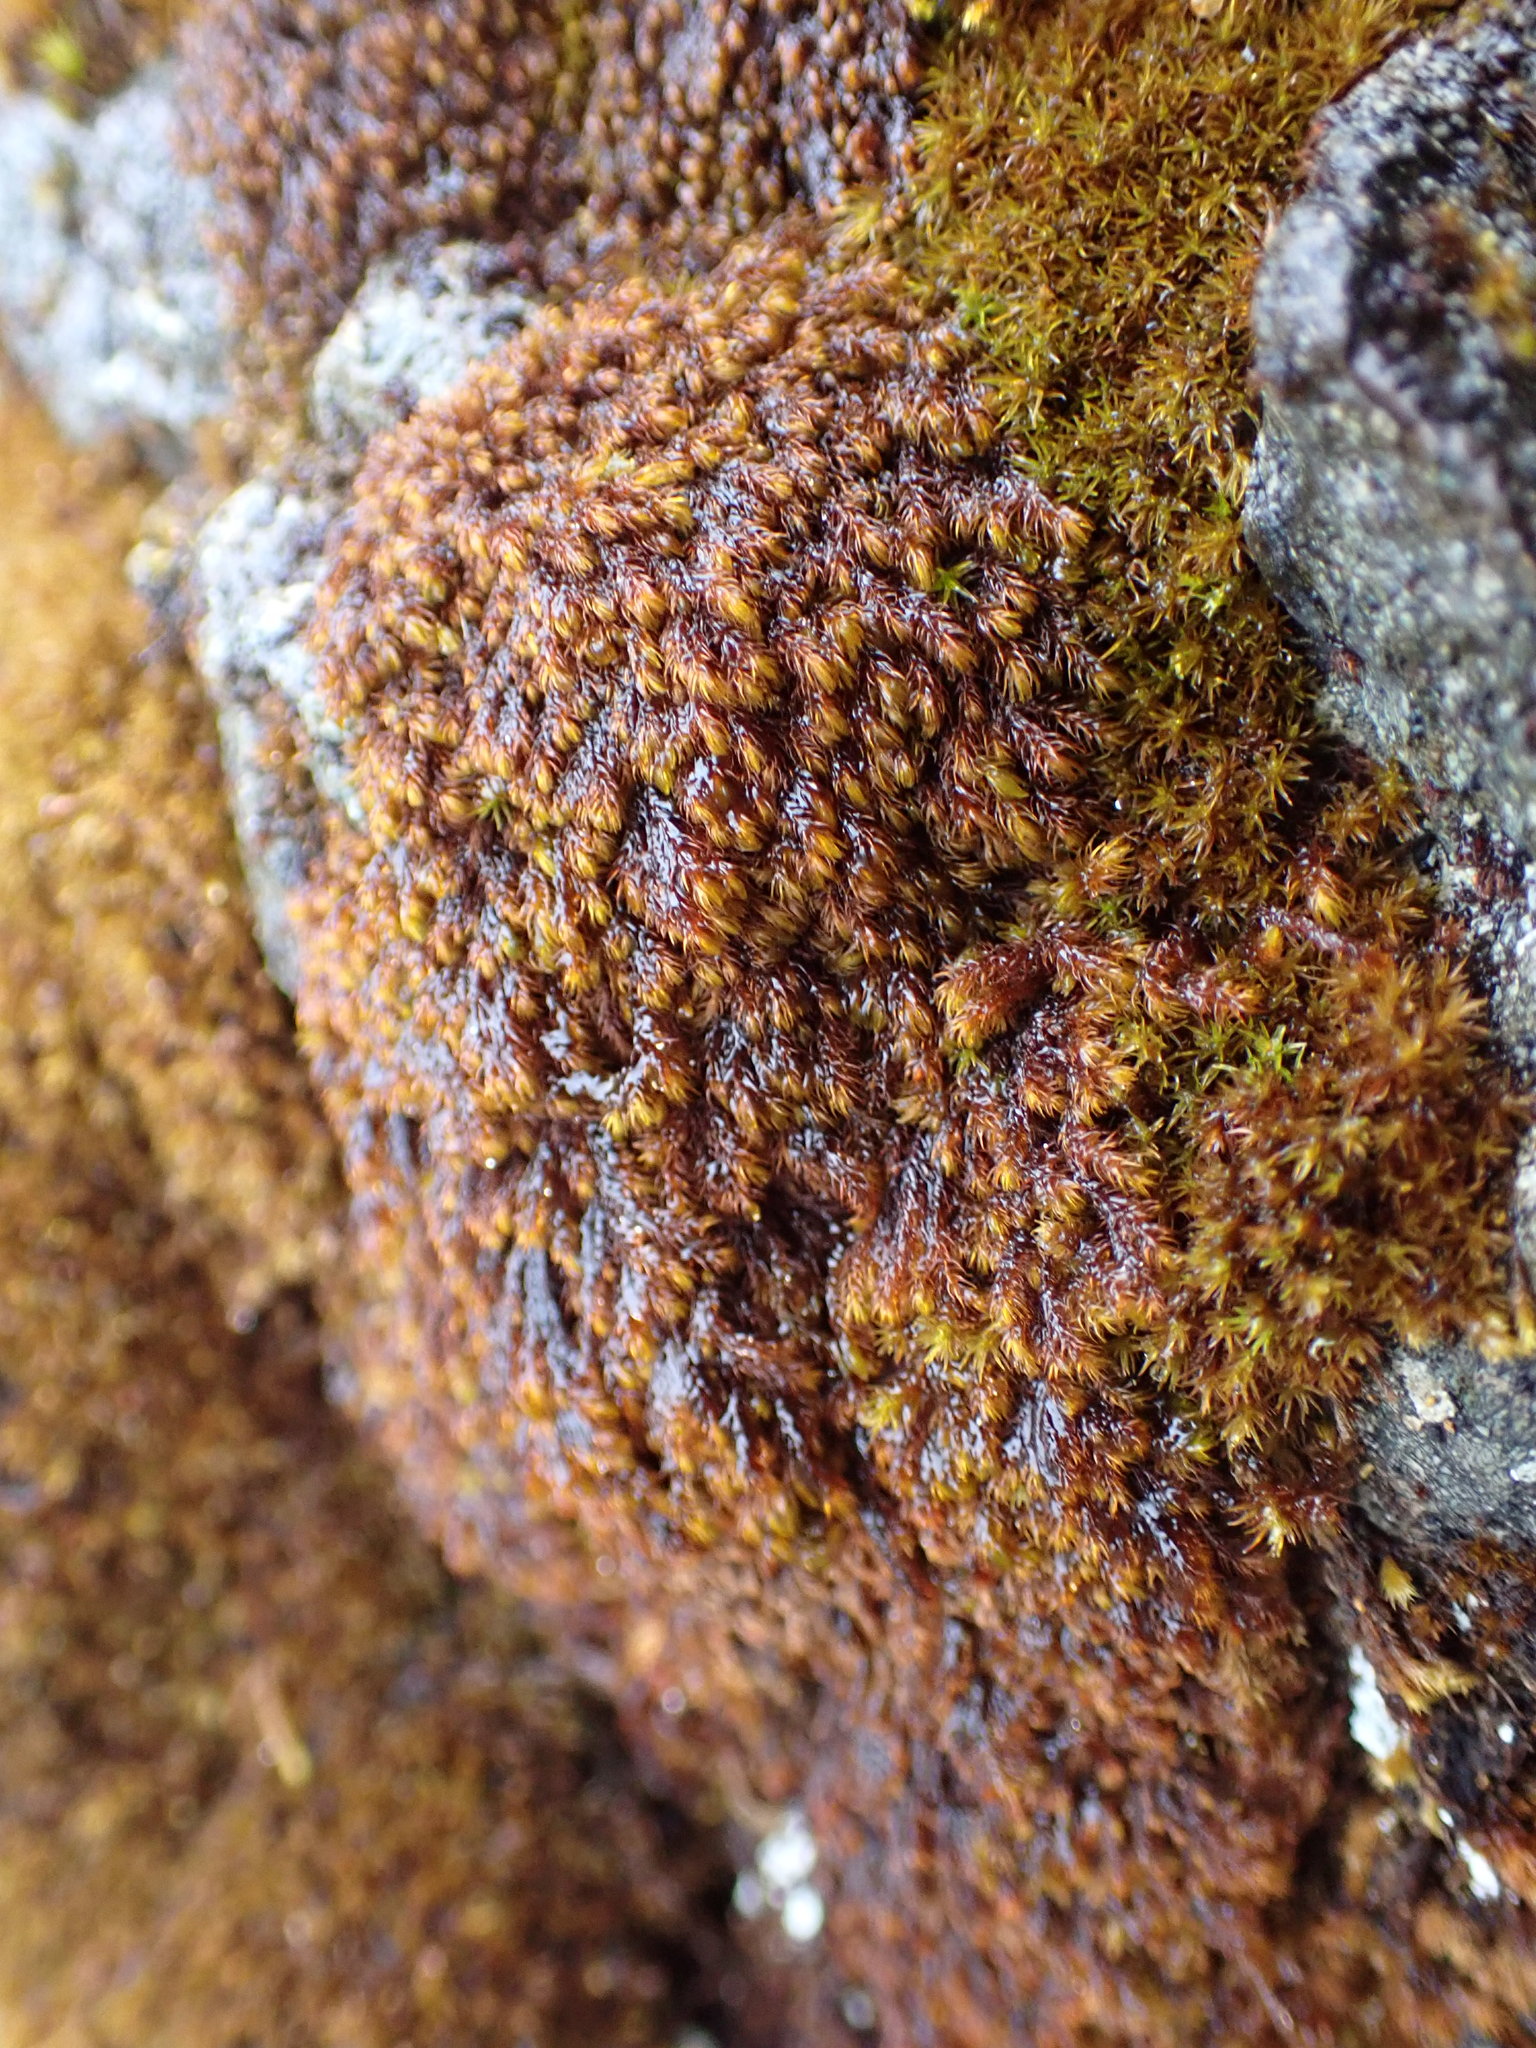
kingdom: Plantae
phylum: Bryophyta
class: Andreaeopsida
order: Andreaeales
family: Andreaeaceae
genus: Andreaea
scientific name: Andreaea nivalis
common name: Snow rock moss
